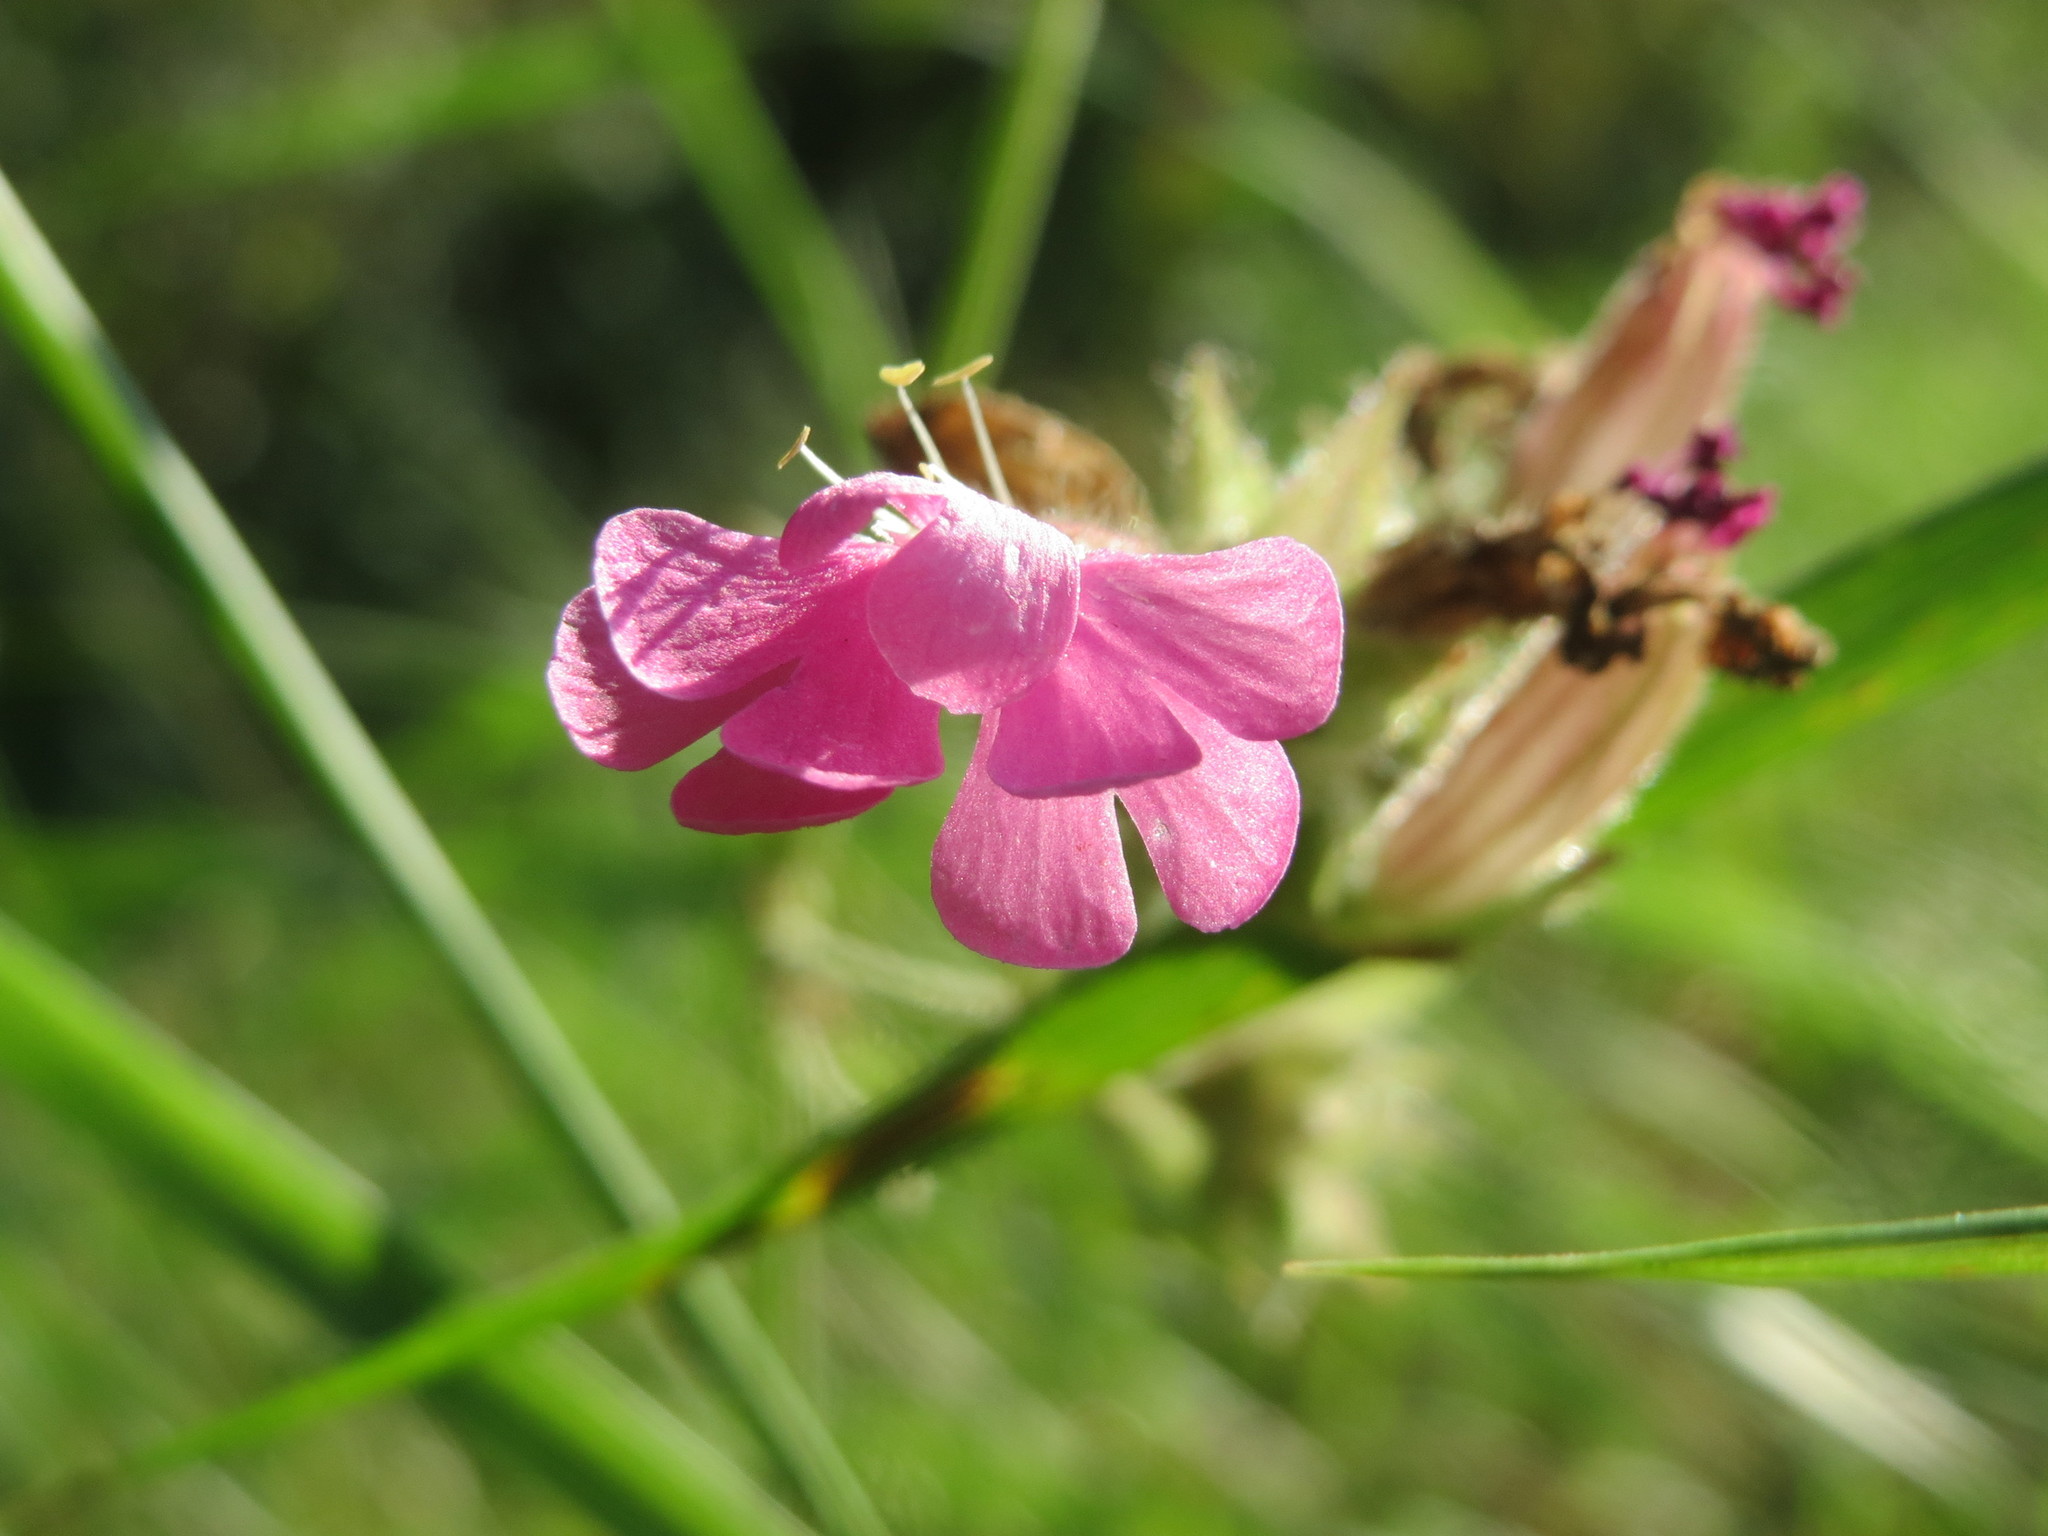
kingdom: Plantae
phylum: Tracheophyta
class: Magnoliopsida
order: Caryophyllales
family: Caryophyllaceae
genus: Silene
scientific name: Silene dioica
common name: Red campion
